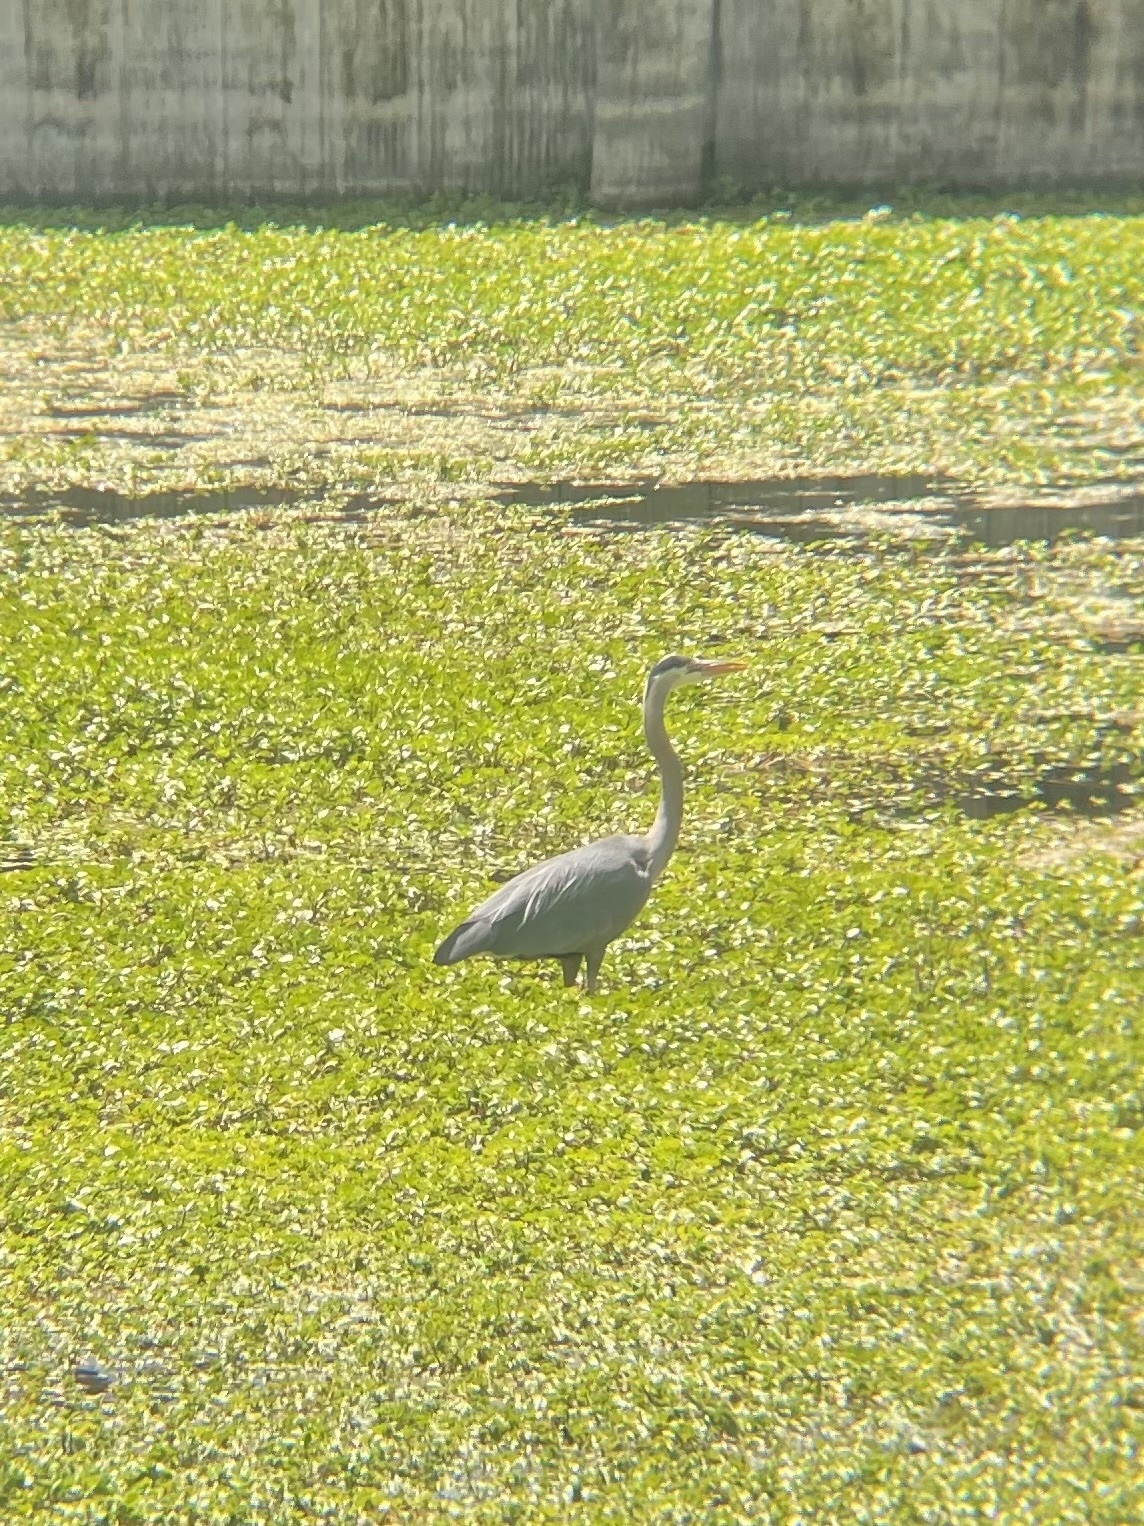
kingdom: Animalia
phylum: Chordata
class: Aves
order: Pelecaniformes
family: Ardeidae
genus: Ardea
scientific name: Ardea herodias
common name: Great blue heron
